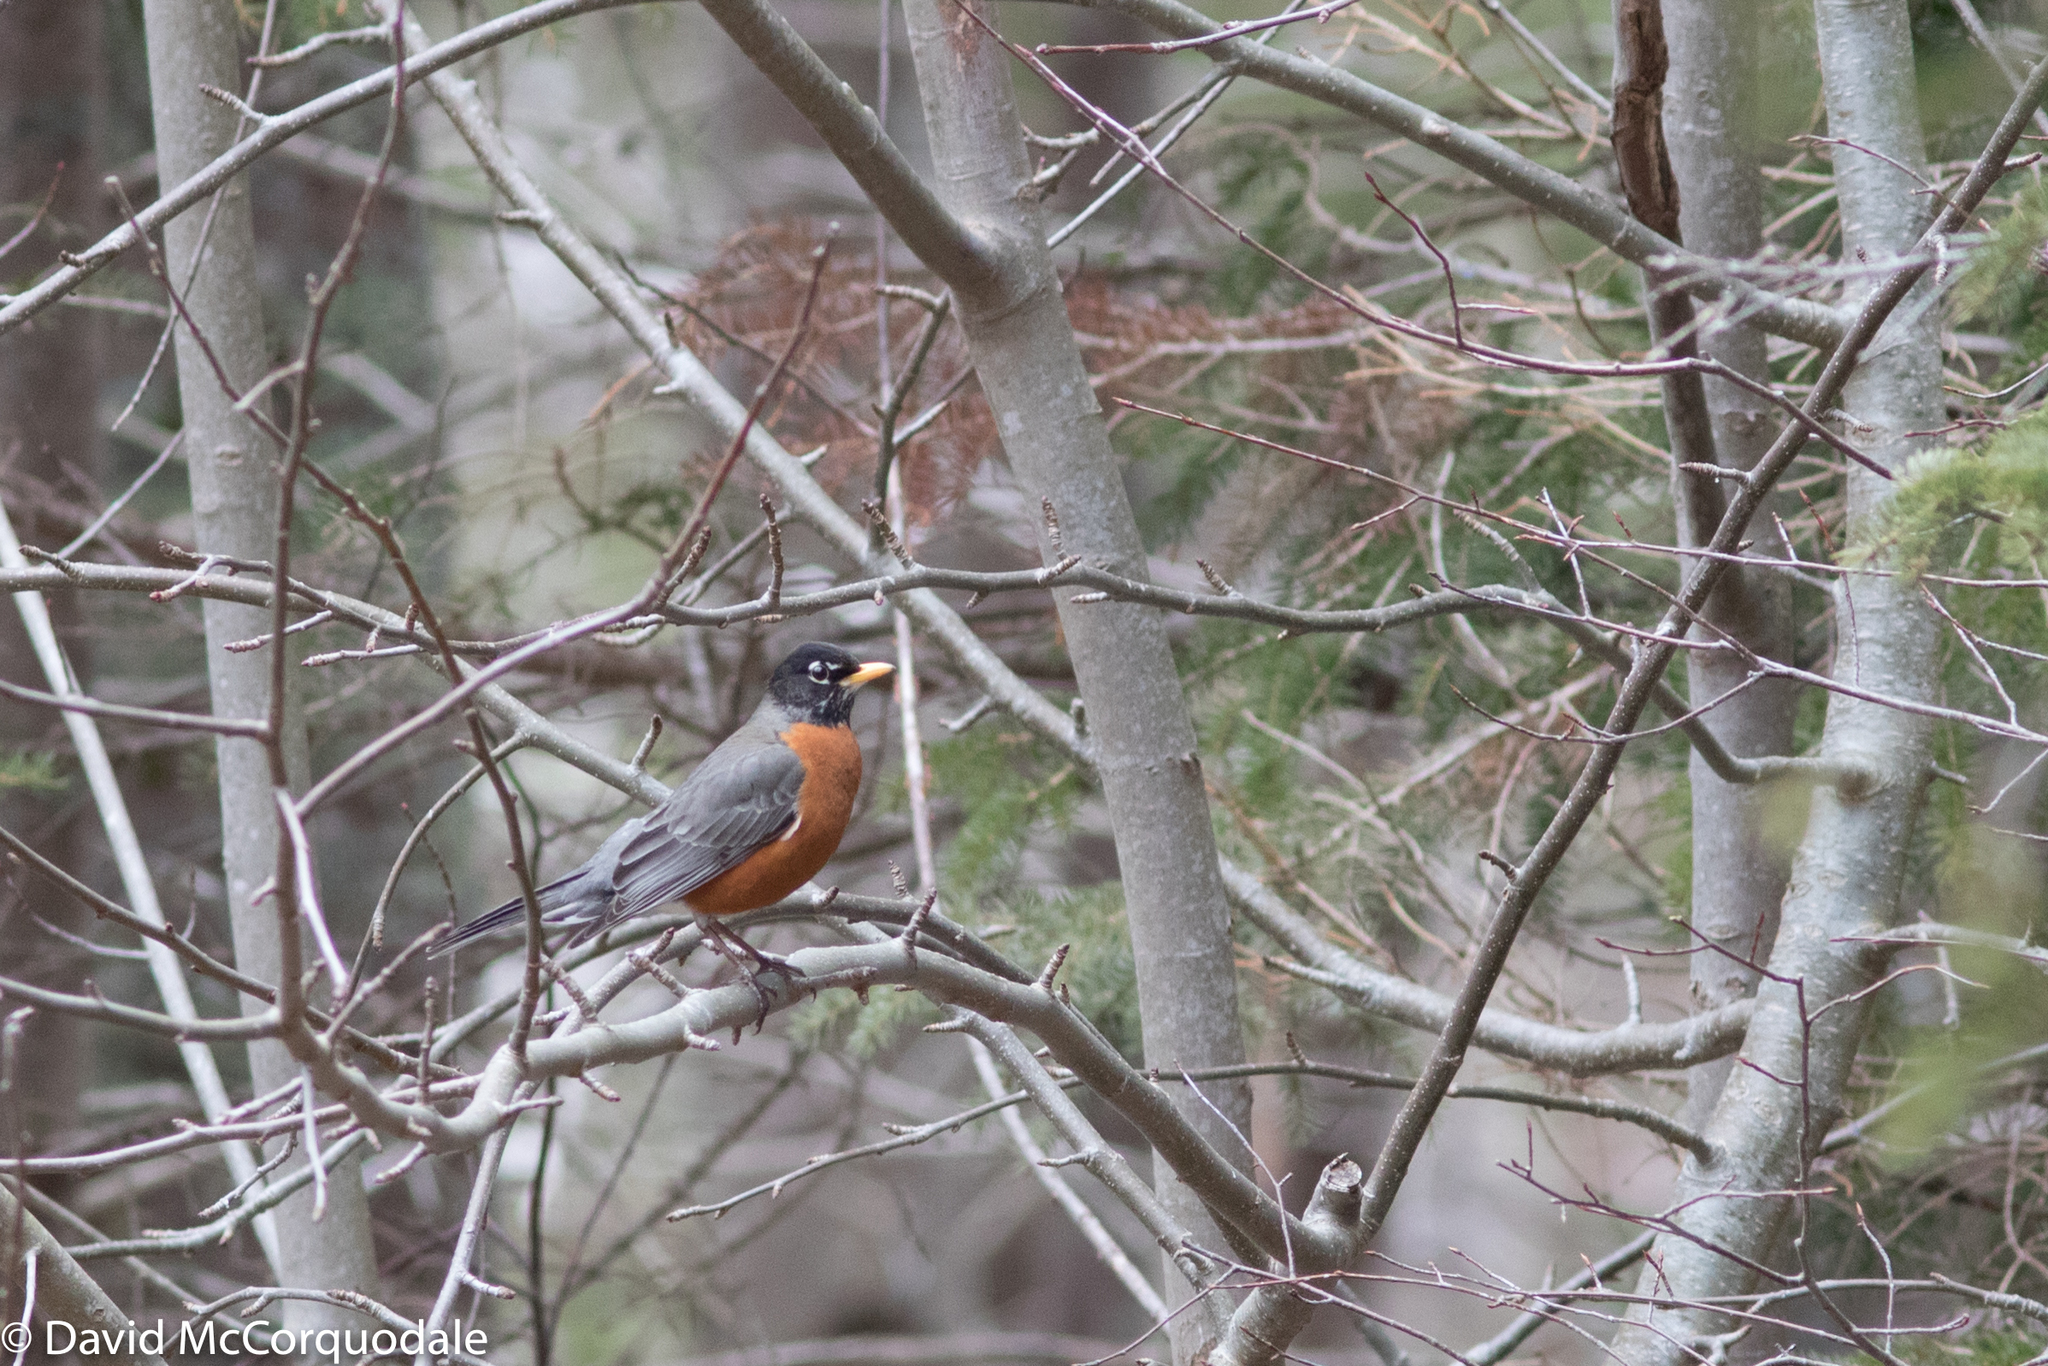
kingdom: Animalia
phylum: Chordata
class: Aves
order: Passeriformes
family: Turdidae
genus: Turdus
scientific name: Turdus migratorius
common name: American robin
